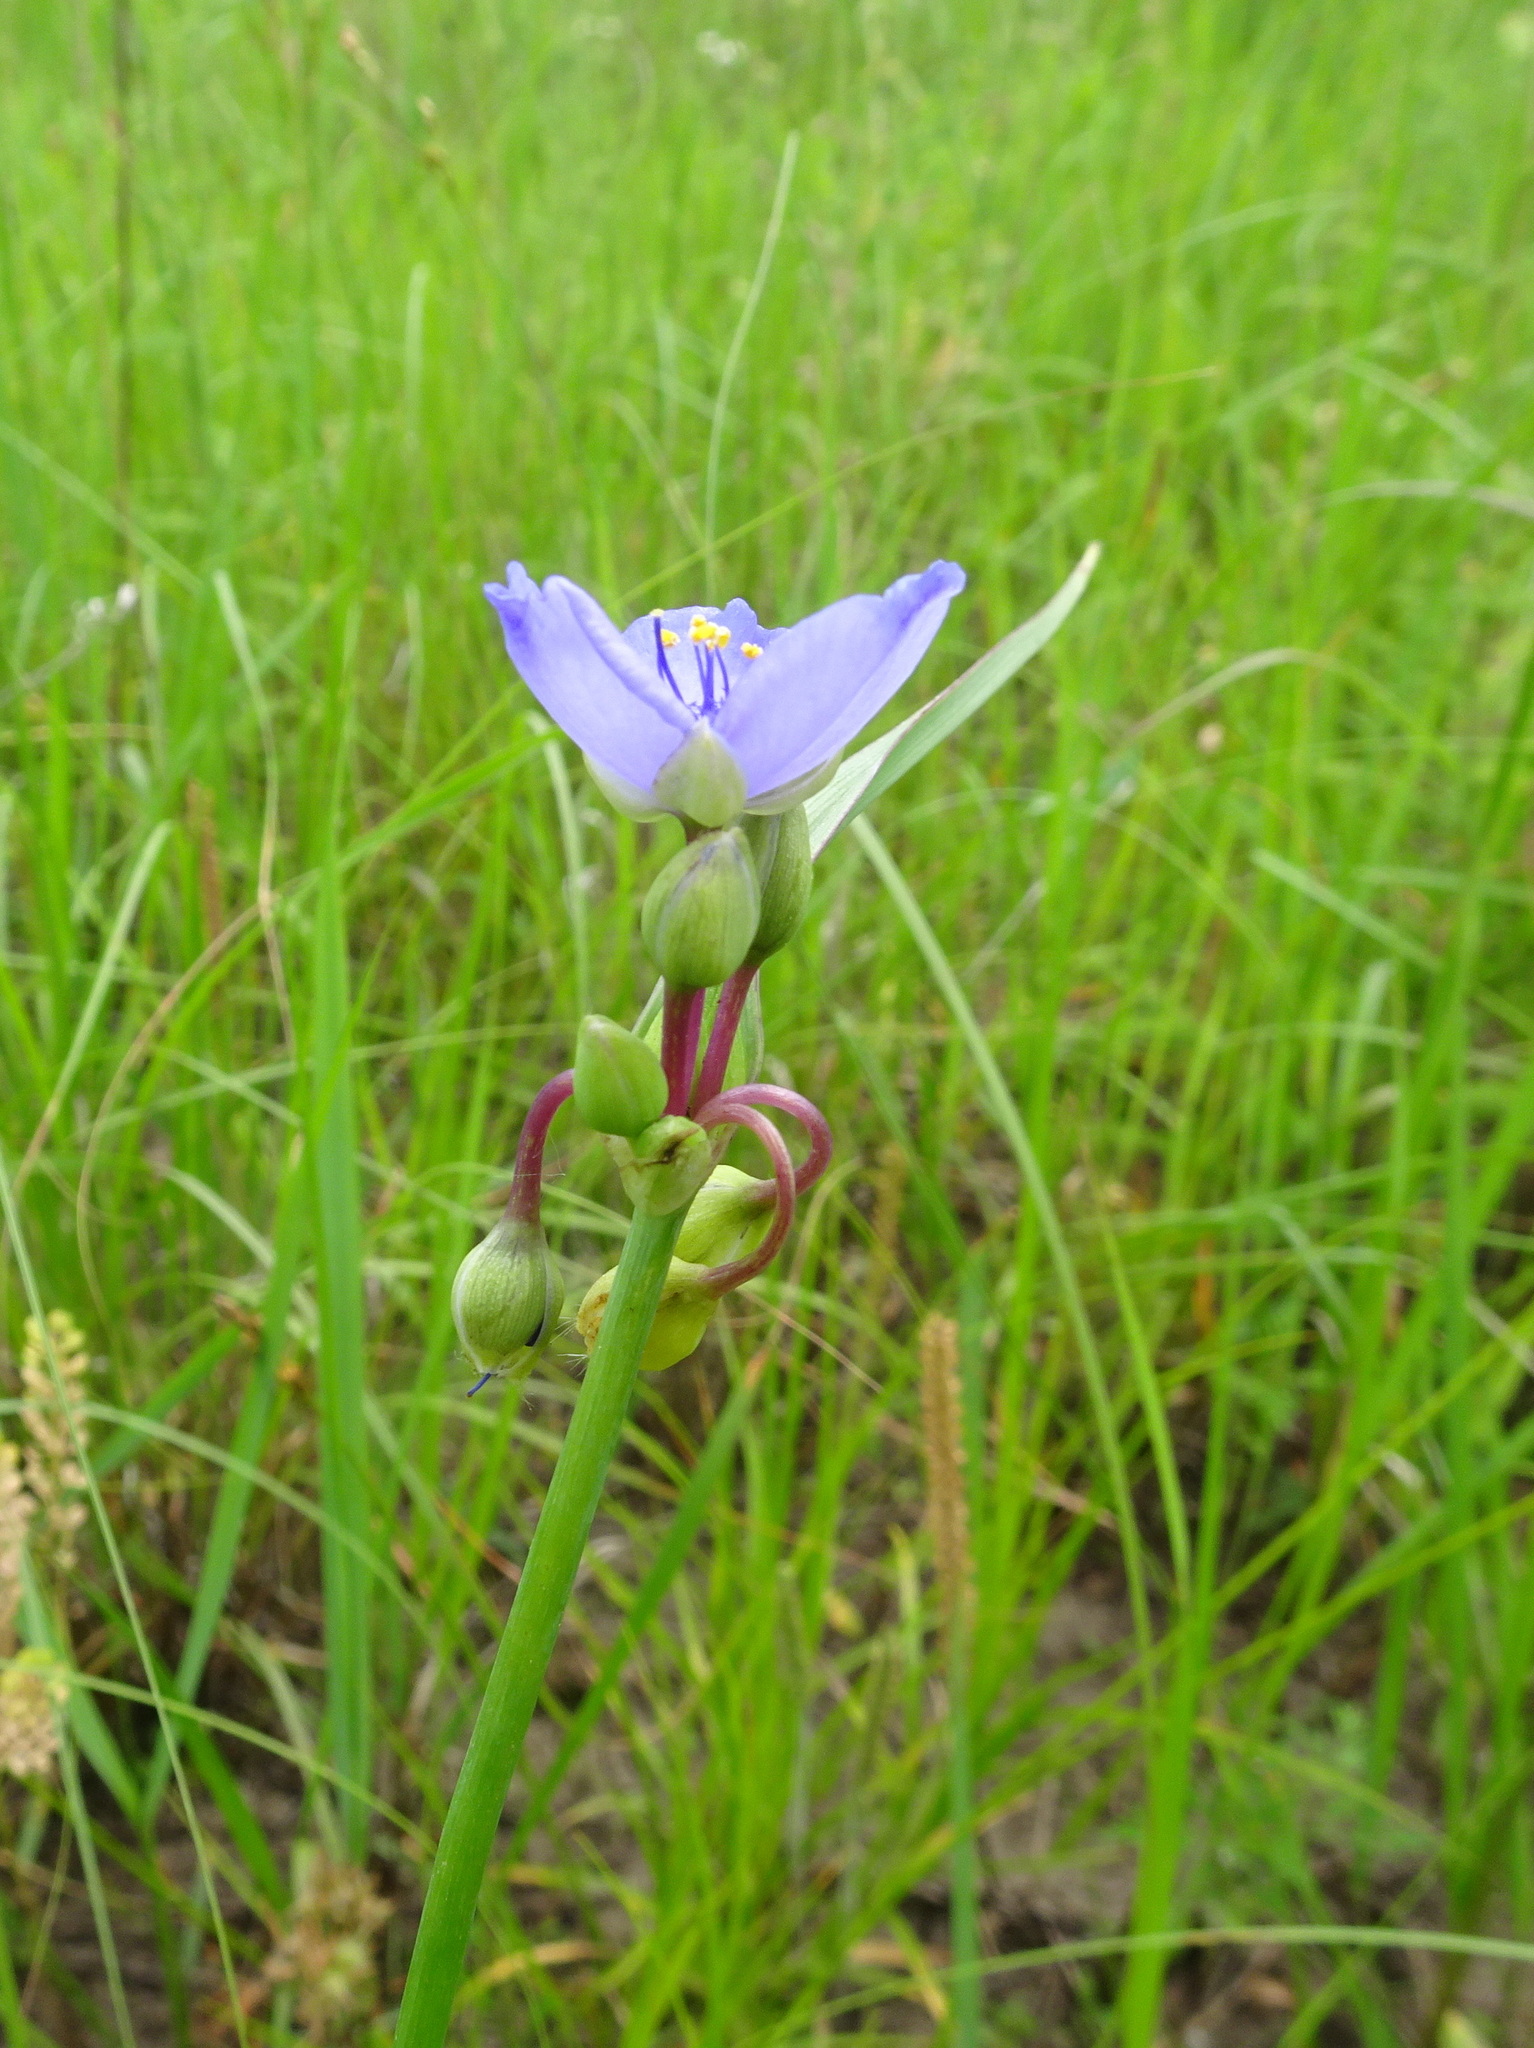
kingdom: Plantae
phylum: Tracheophyta
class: Liliopsida
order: Commelinales
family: Commelinaceae
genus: Tradescantia
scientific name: Tradescantia ohiensis
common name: Ohio spiderwort
